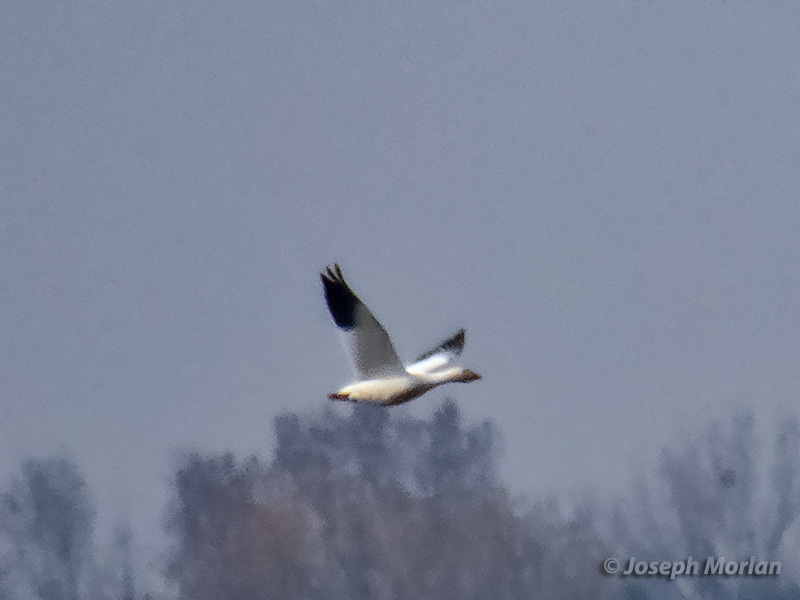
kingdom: Animalia
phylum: Chordata
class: Aves
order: Anseriformes
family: Anatidae
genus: Anser
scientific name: Anser rossii
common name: Ross's goose
